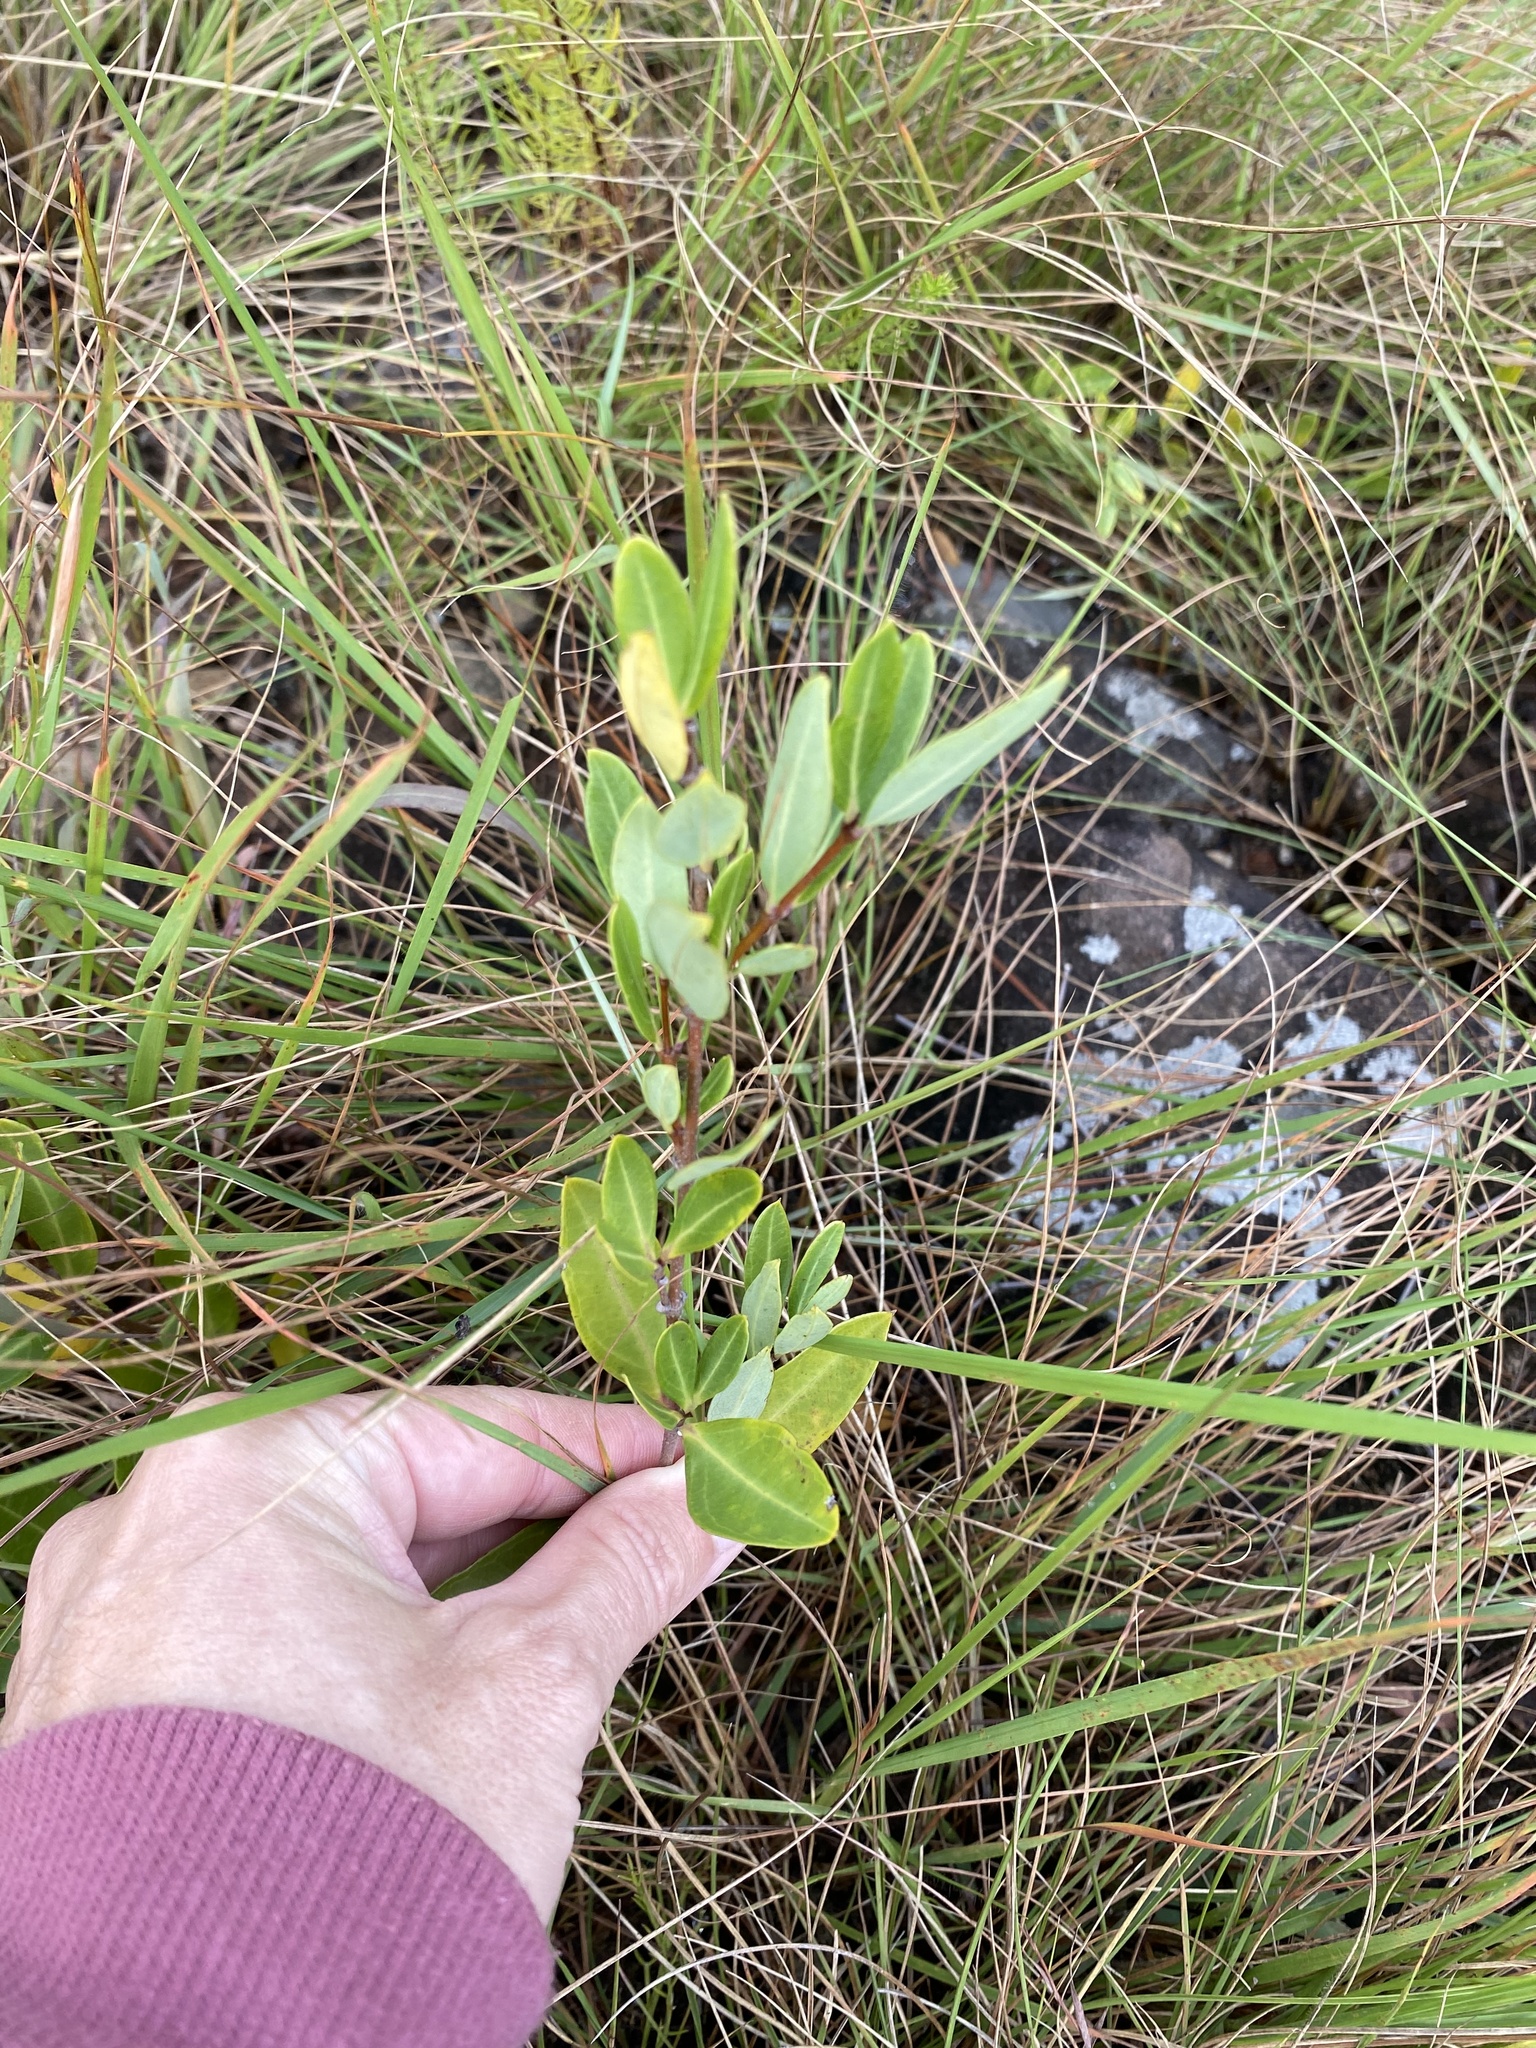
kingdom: Plantae
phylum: Tracheophyta
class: Magnoliopsida
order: Gentianales
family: Apocynaceae
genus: Cryptolepis
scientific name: Cryptolepis oblongifolia
